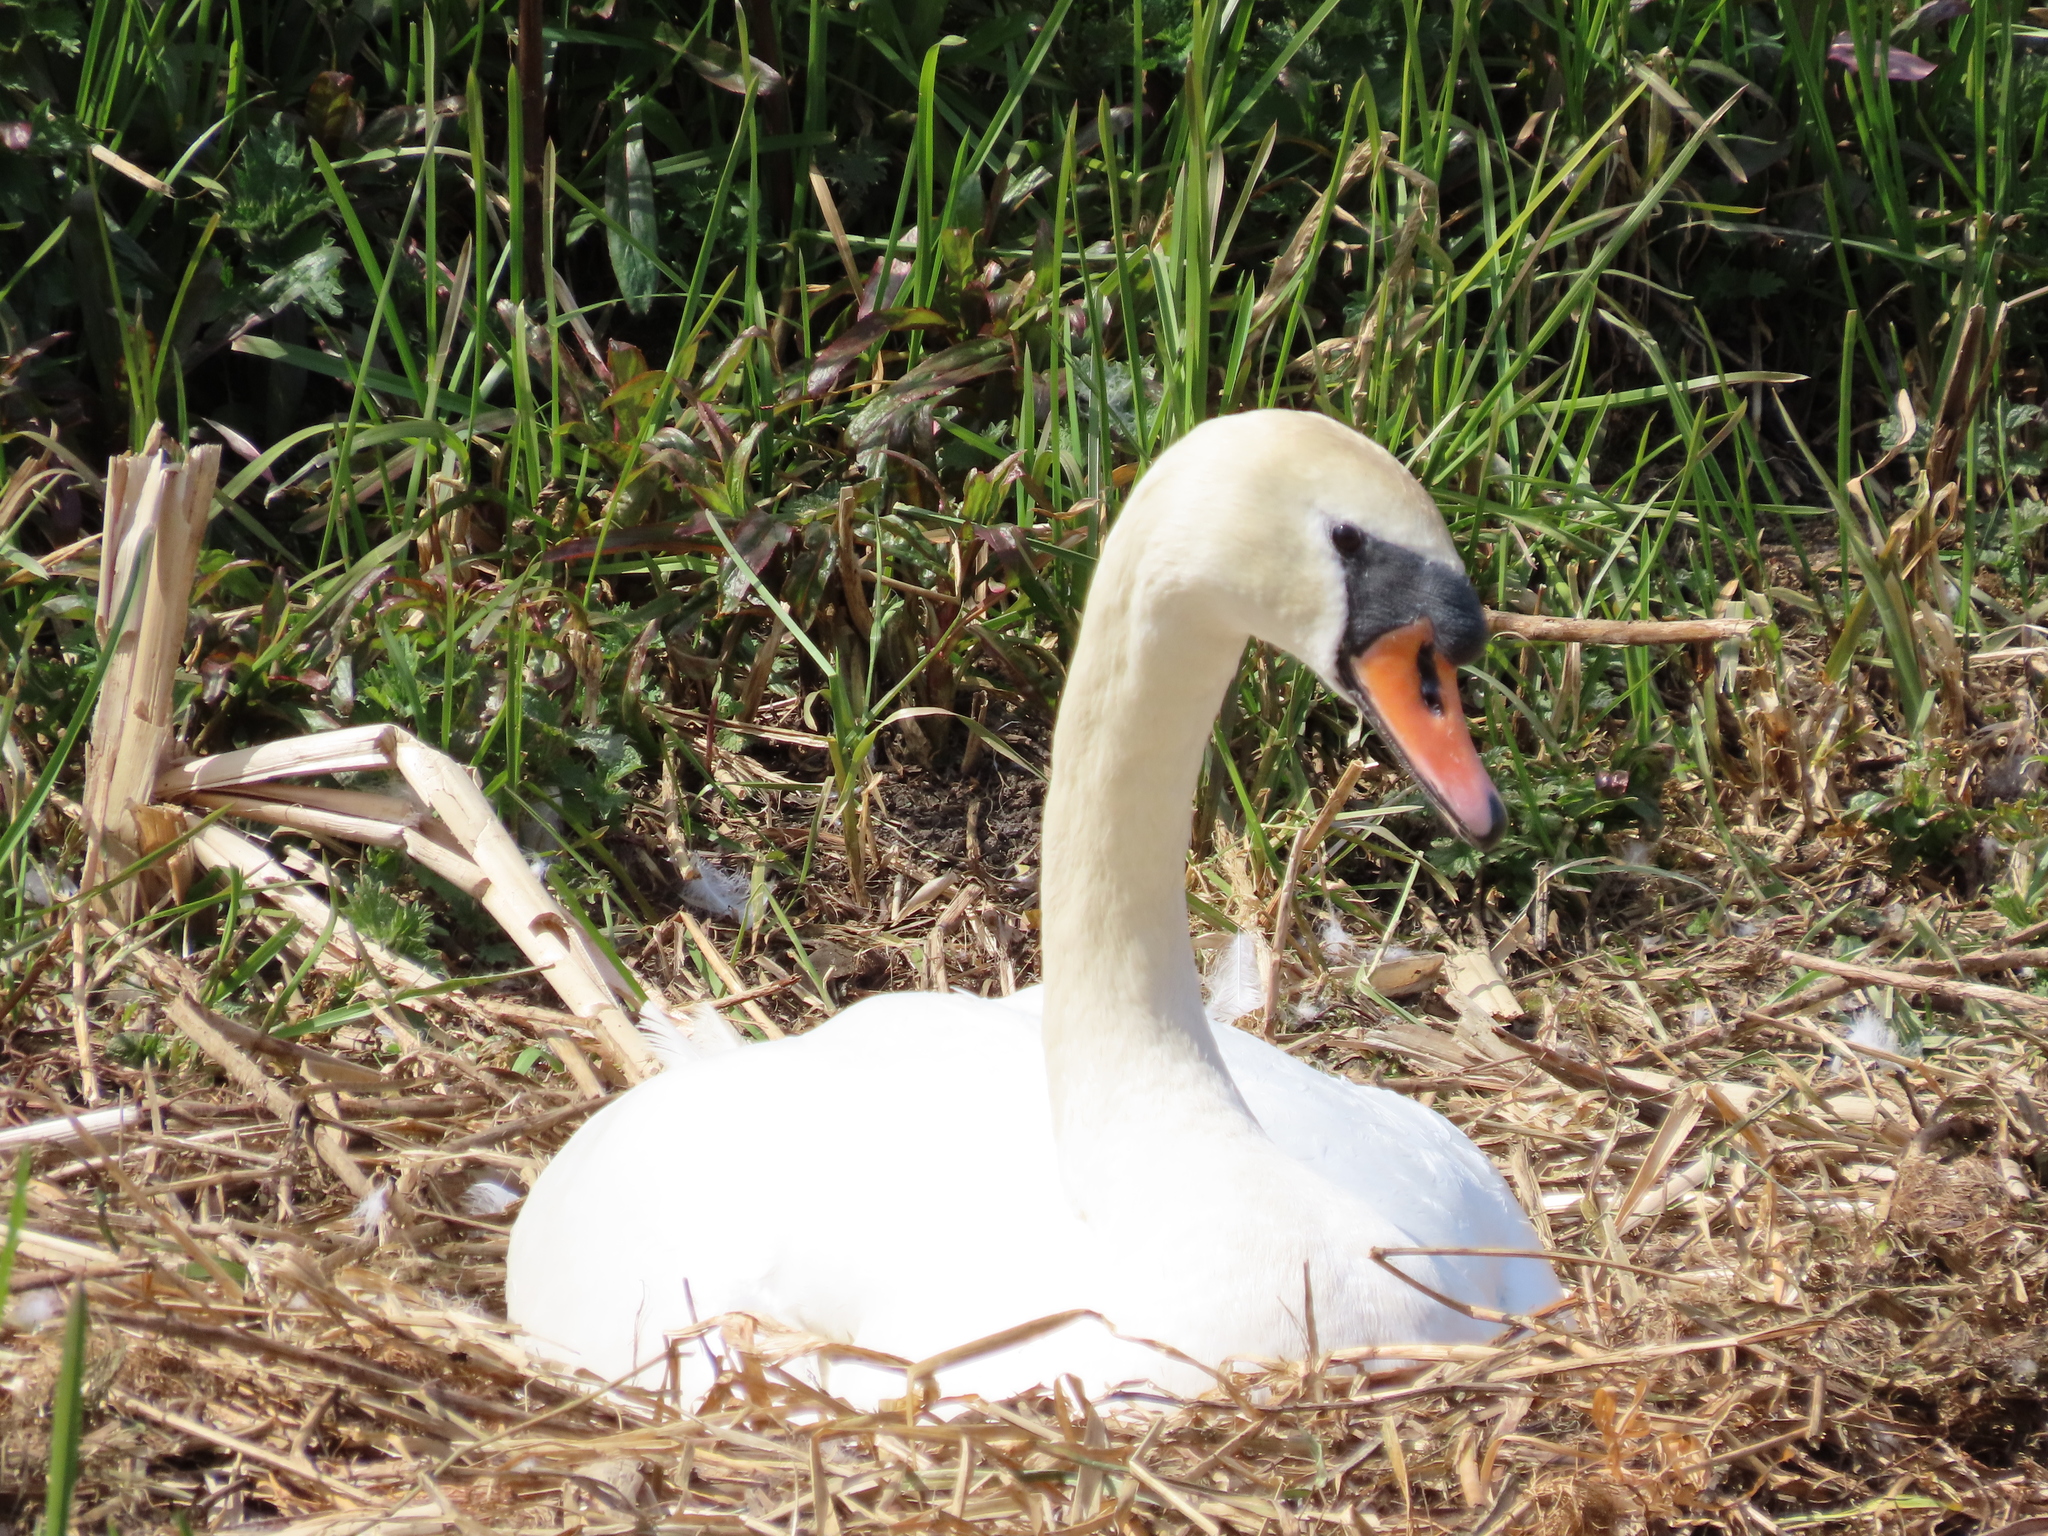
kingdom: Animalia
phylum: Chordata
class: Aves
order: Anseriformes
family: Anatidae
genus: Cygnus
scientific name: Cygnus olor
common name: Mute swan
